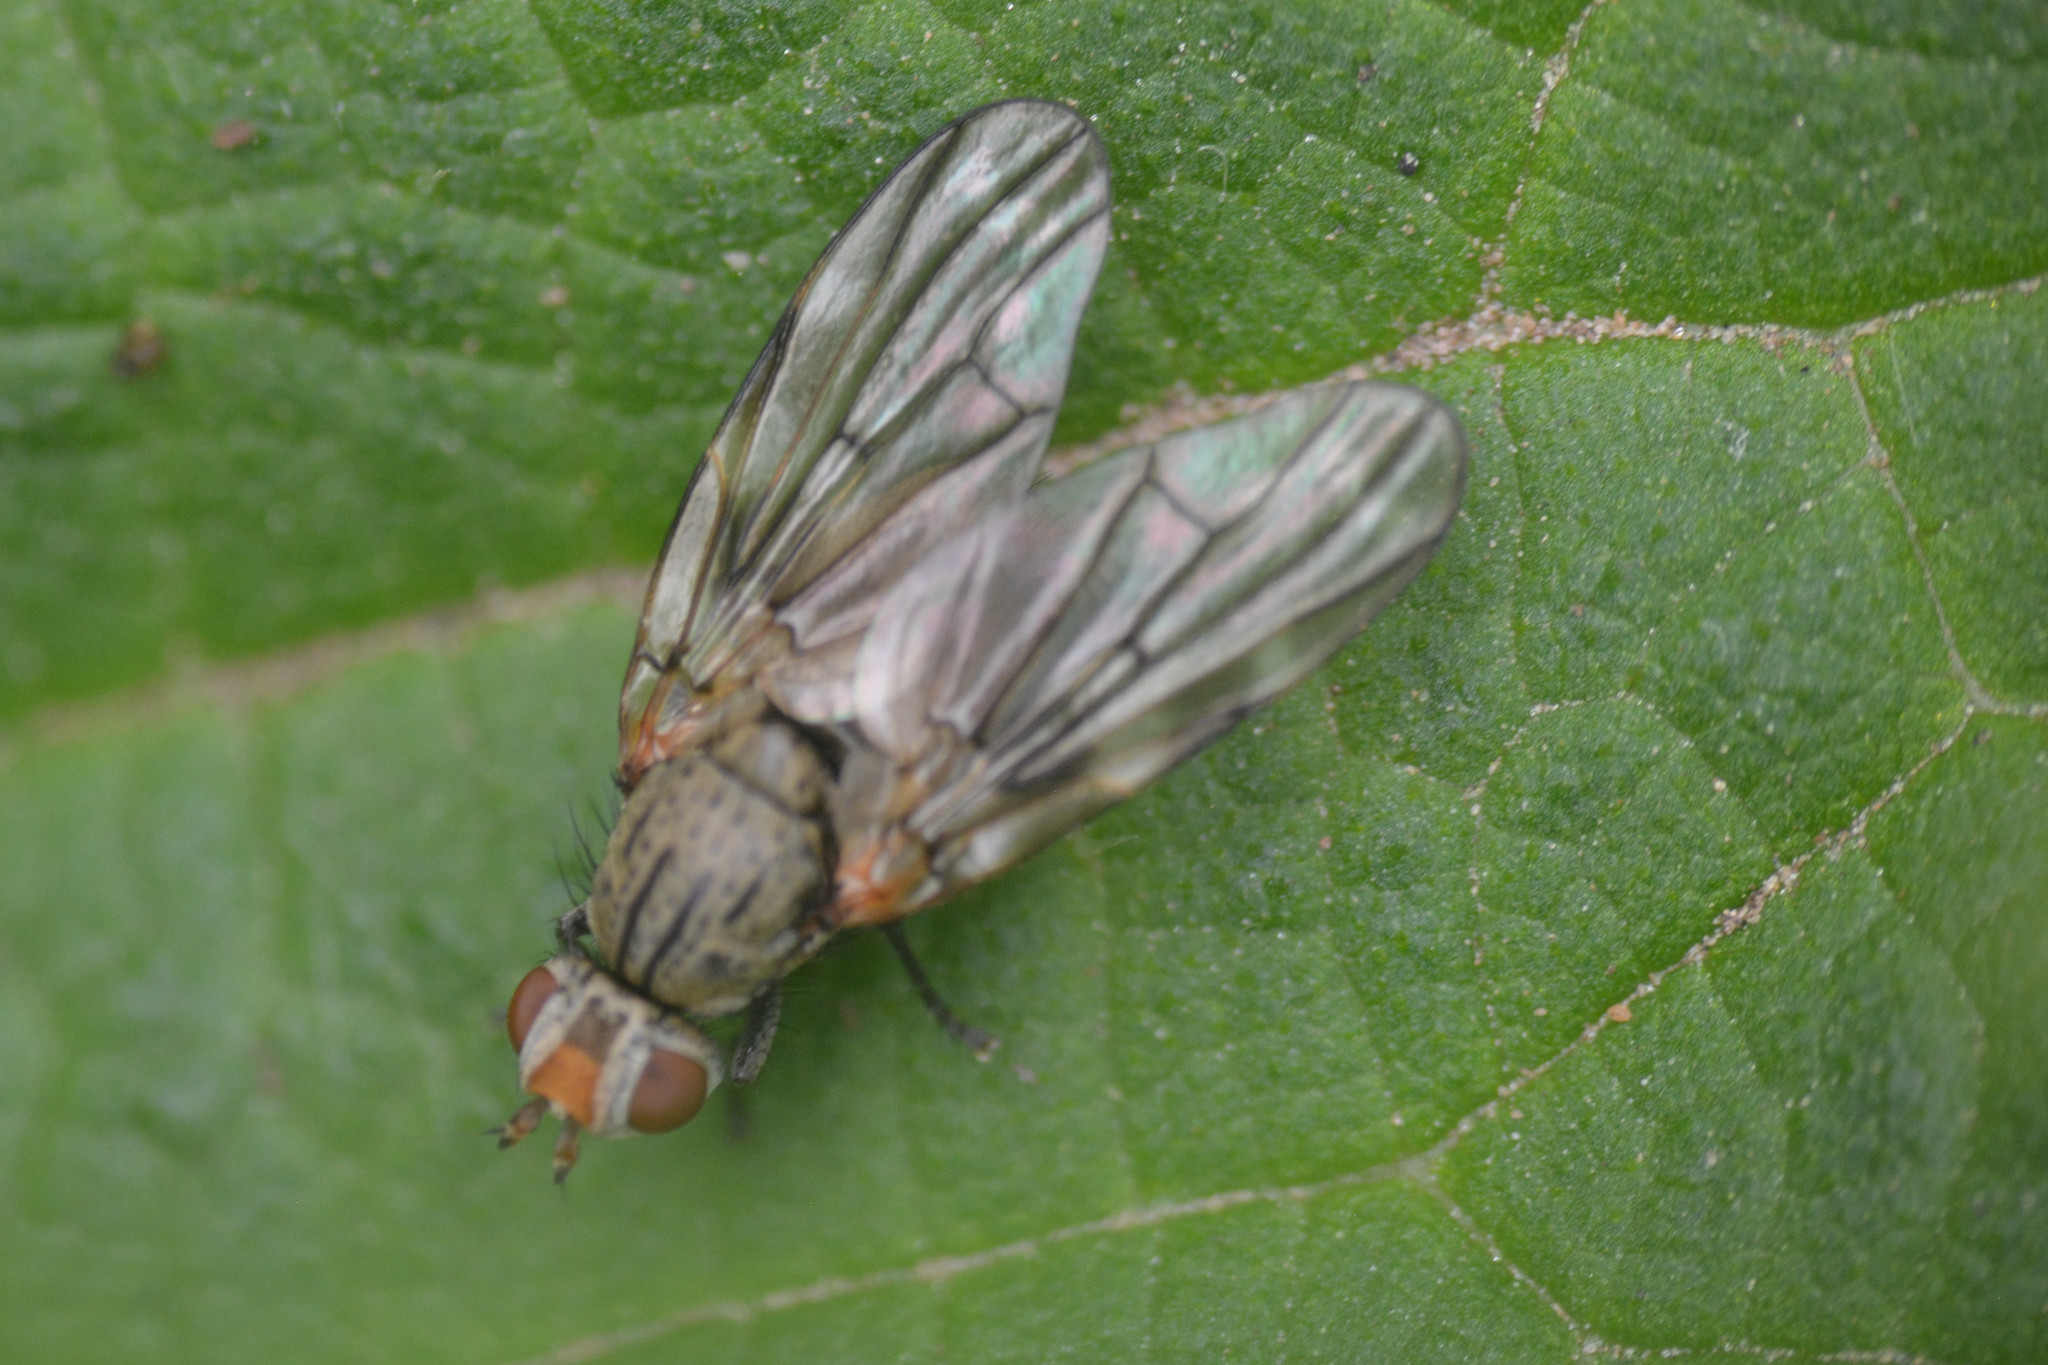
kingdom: Animalia
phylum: Arthropoda
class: Insecta
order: Diptera
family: Ulidiidae
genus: Otites
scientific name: Otites guttata
